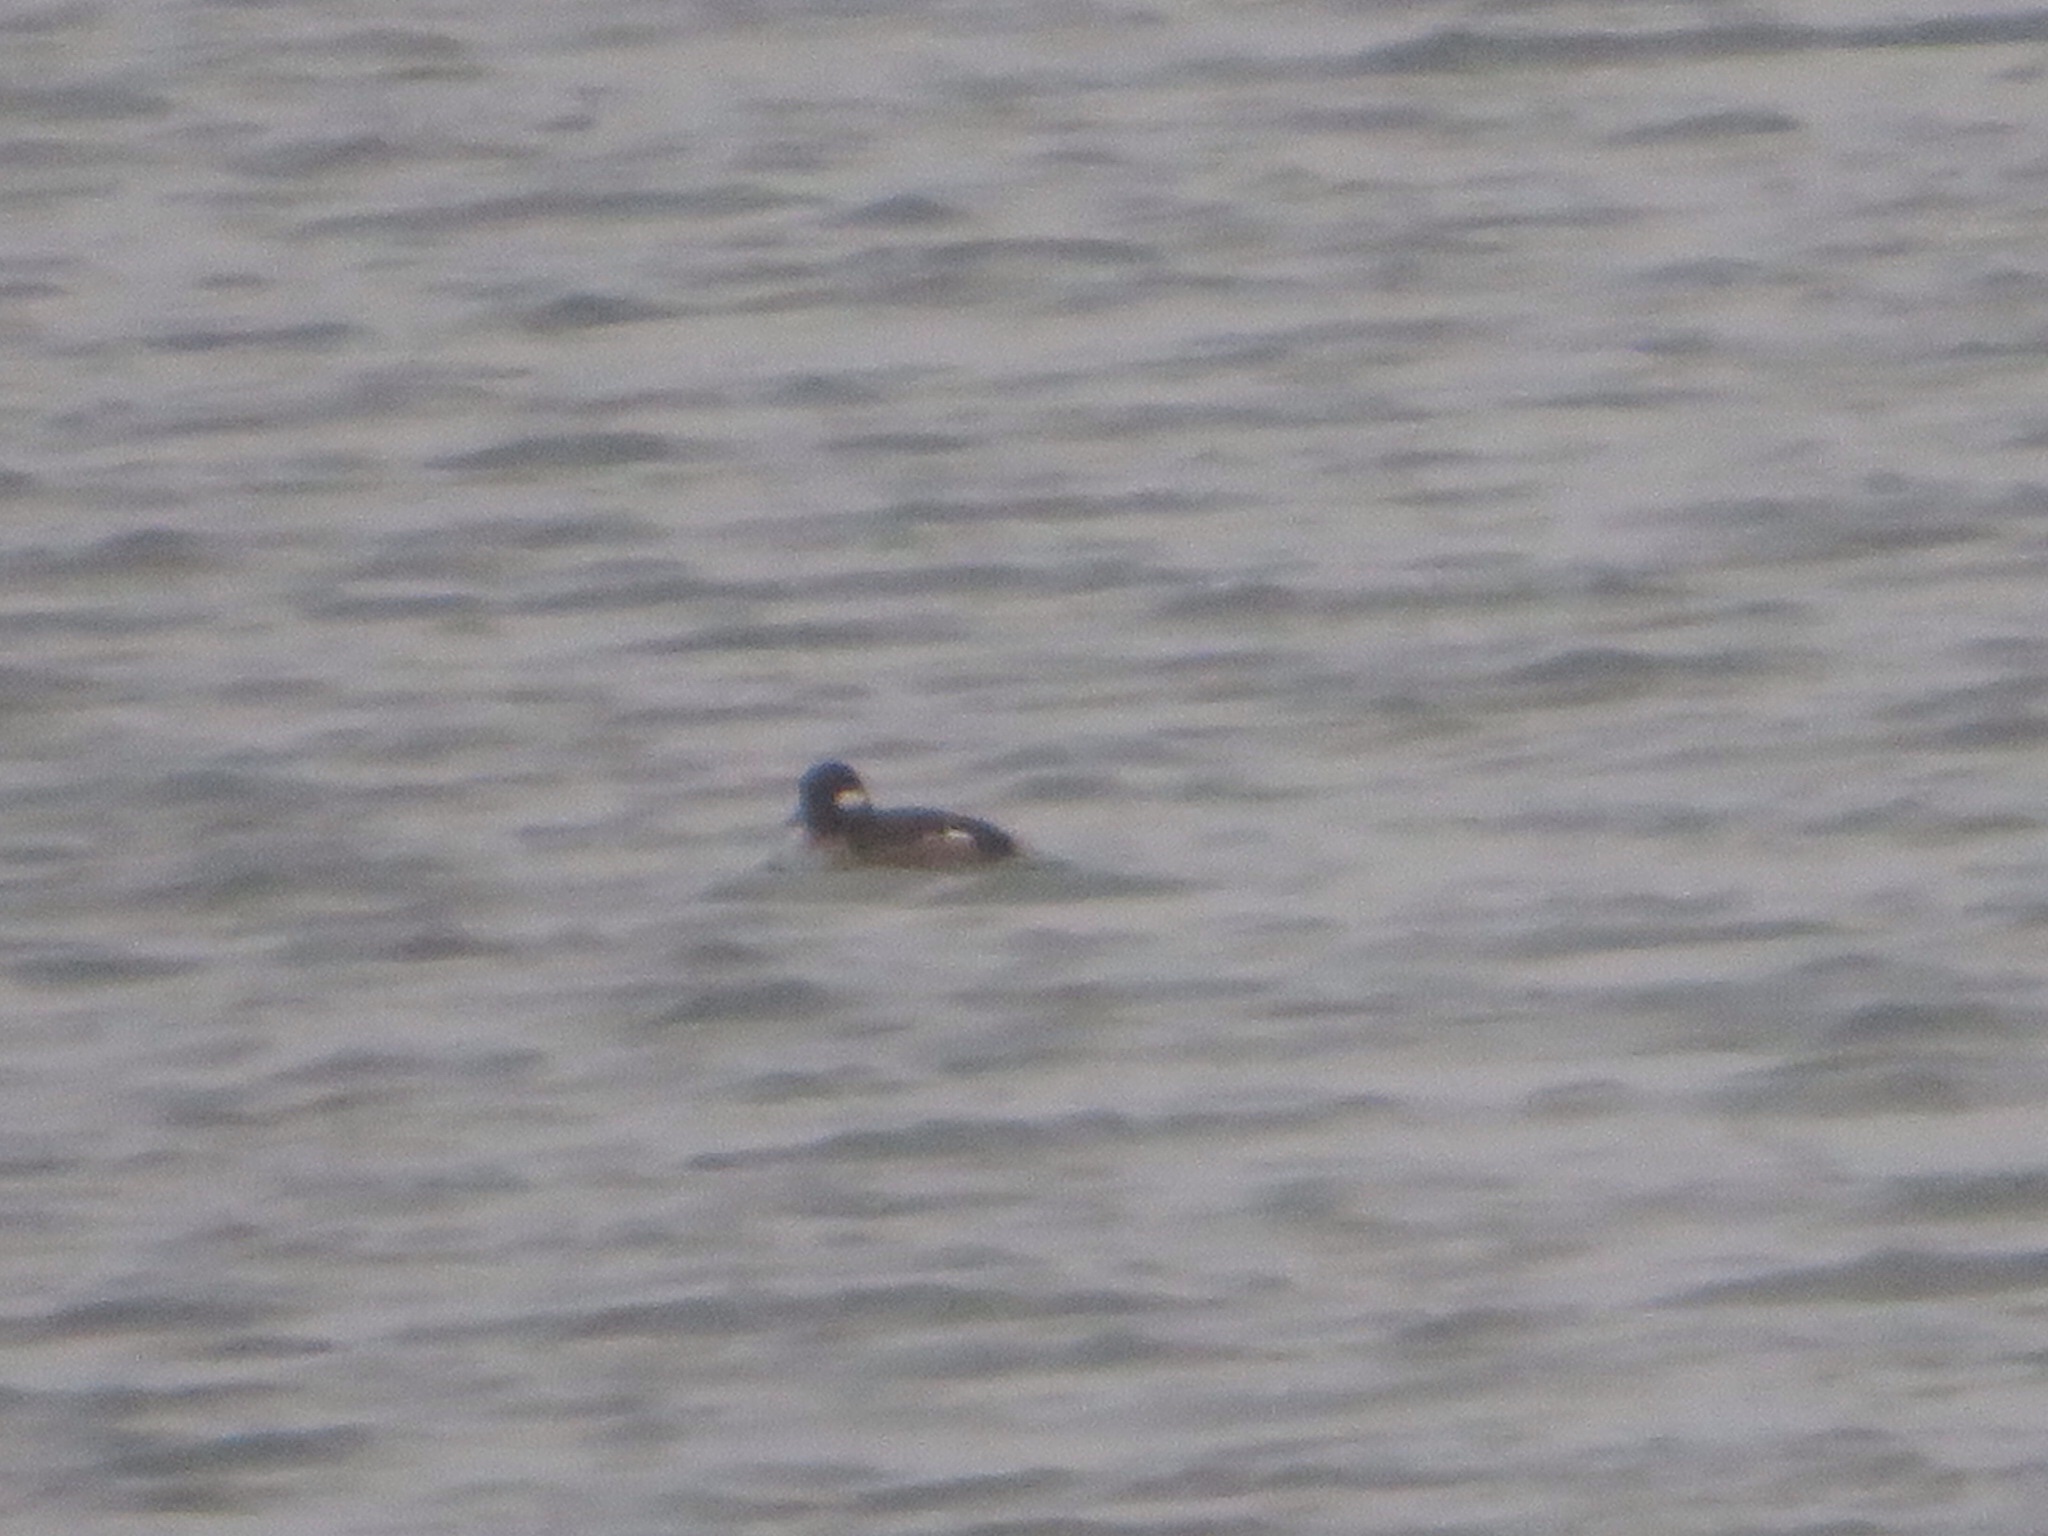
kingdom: Animalia
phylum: Chordata
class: Aves
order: Anseriformes
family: Anatidae
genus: Bucephala
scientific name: Bucephala albeola
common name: Bufflehead
